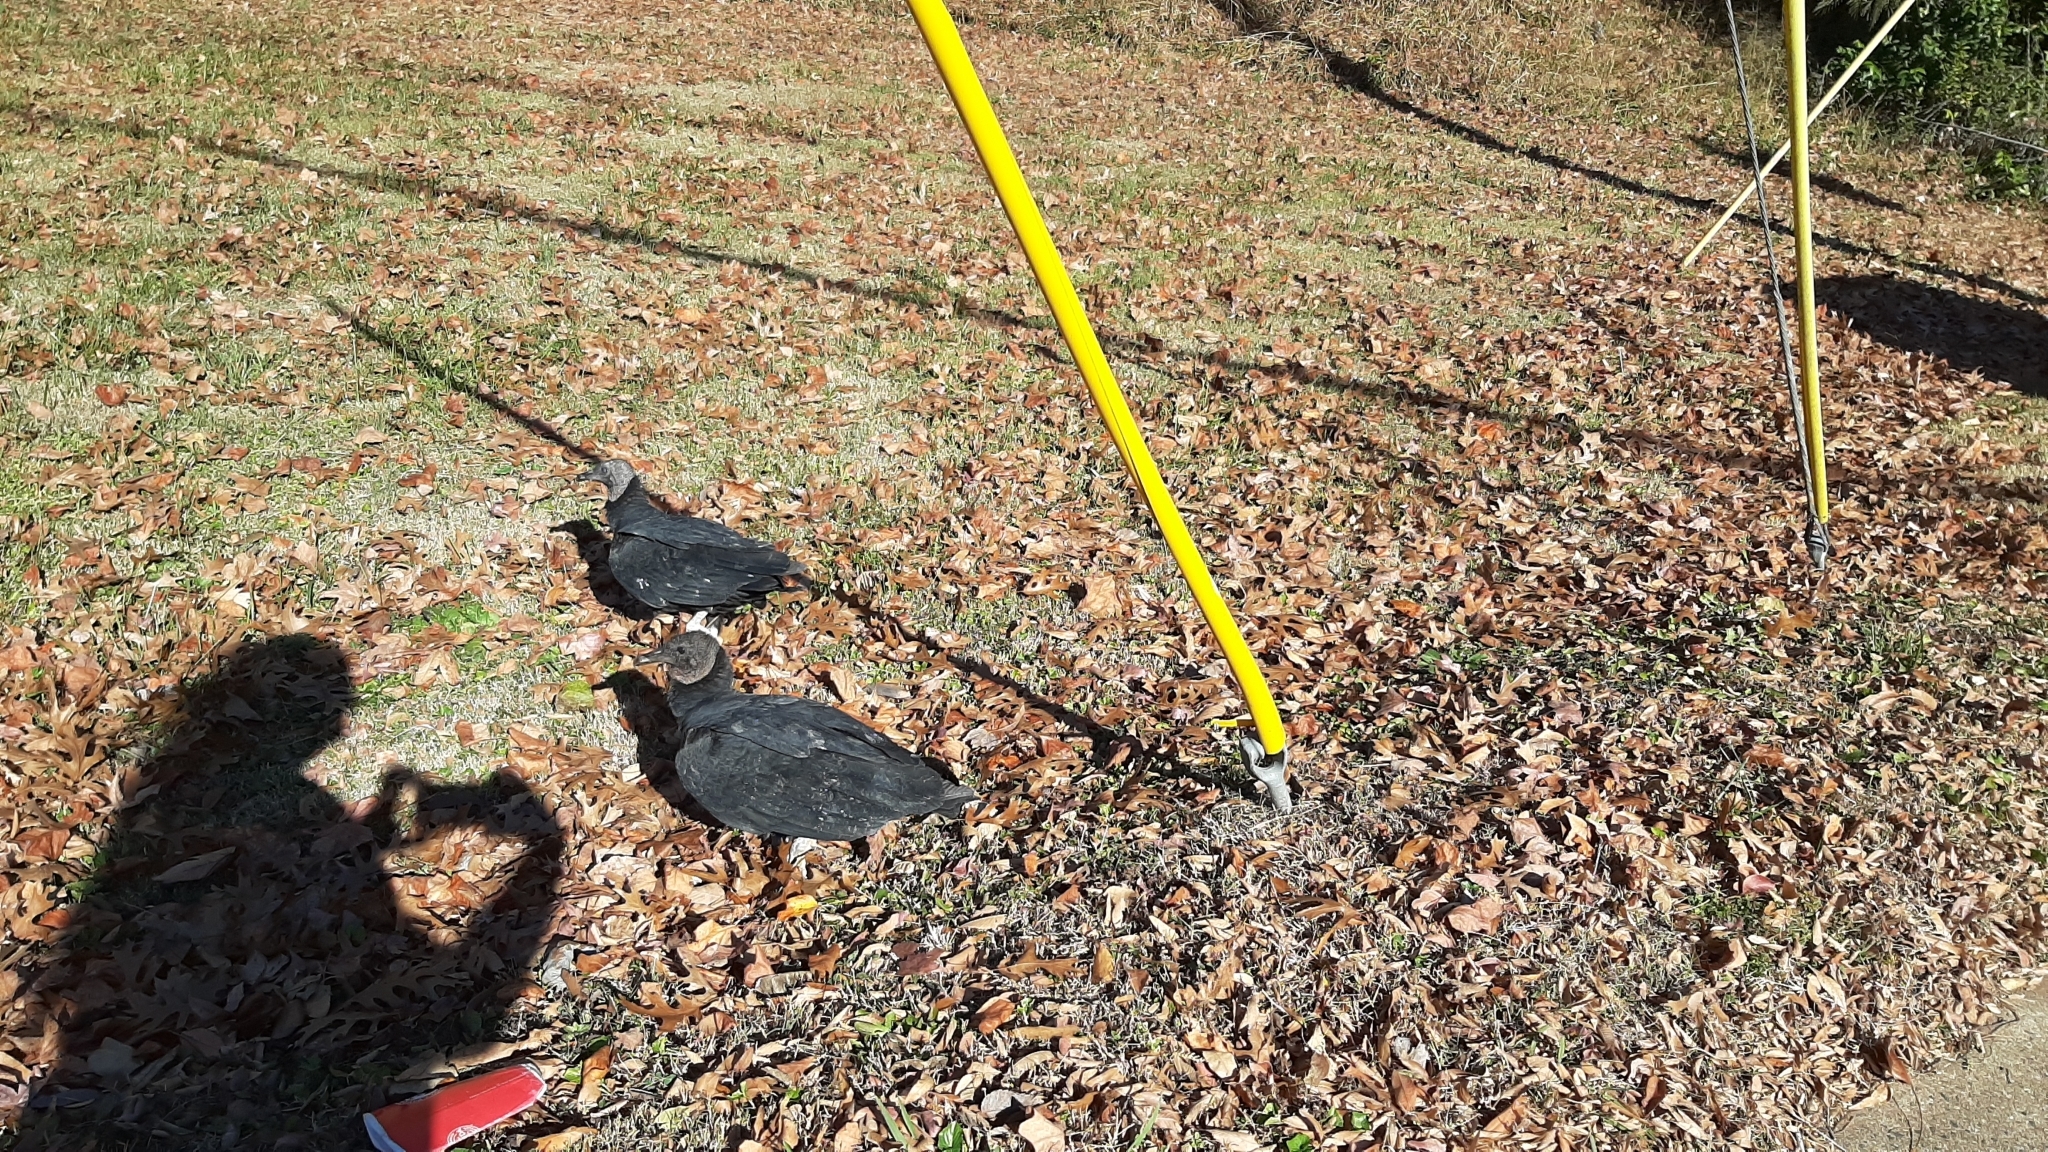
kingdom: Animalia
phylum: Chordata
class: Aves
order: Accipitriformes
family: Cathartidae
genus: Coragyps
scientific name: Coragyps atratus
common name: Black vulture
